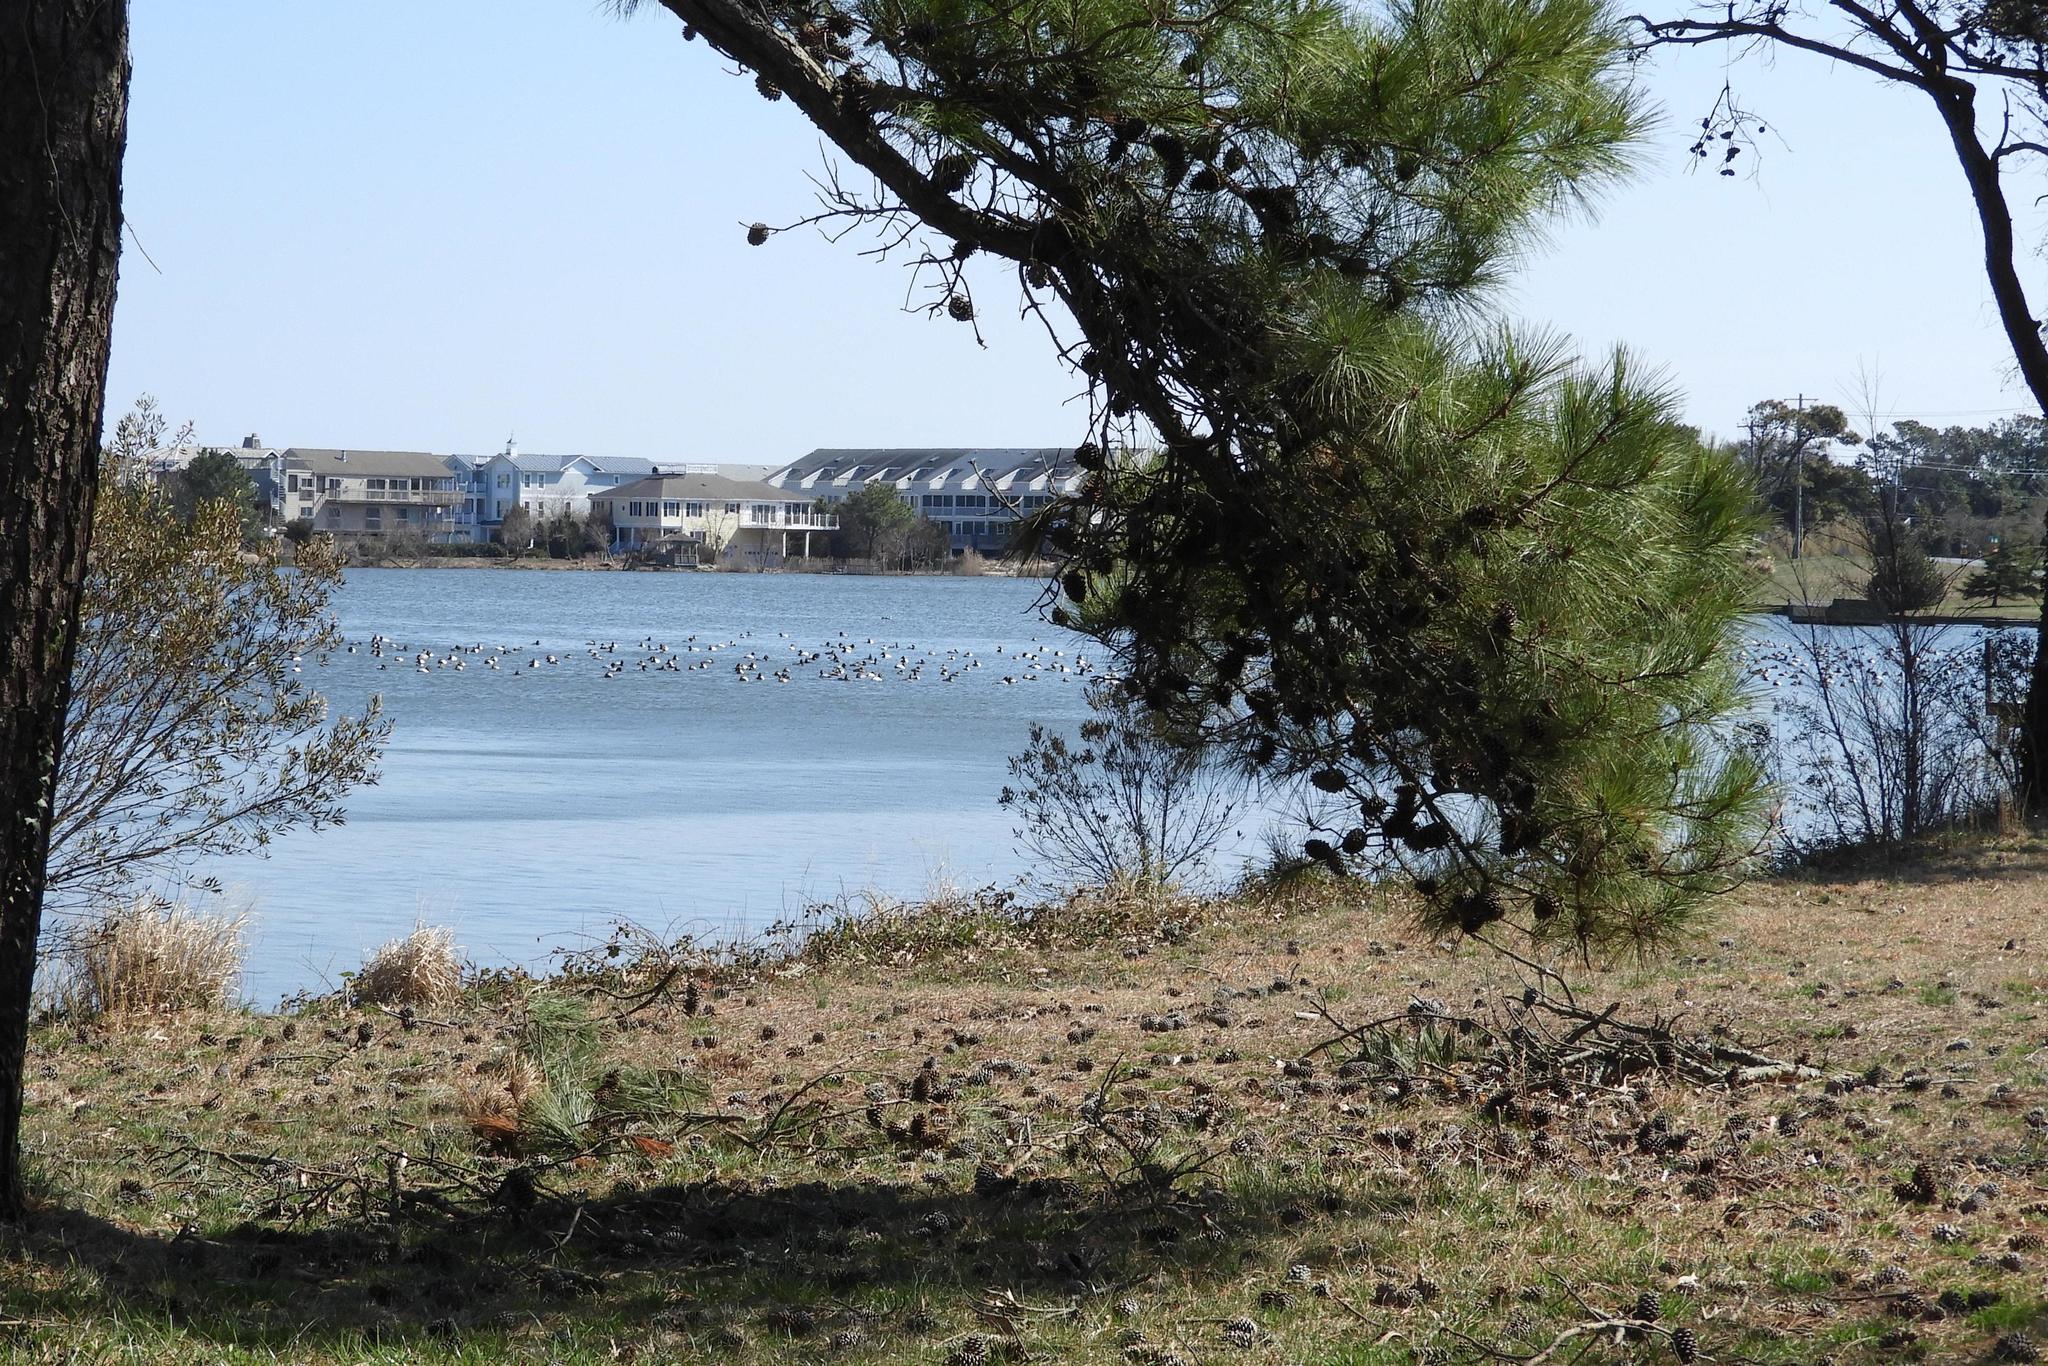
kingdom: Animalia
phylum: Chordata
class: Aves
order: Anseriformes
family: Anatidae
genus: Aythya
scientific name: Aythya valisineria
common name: Canvasback
